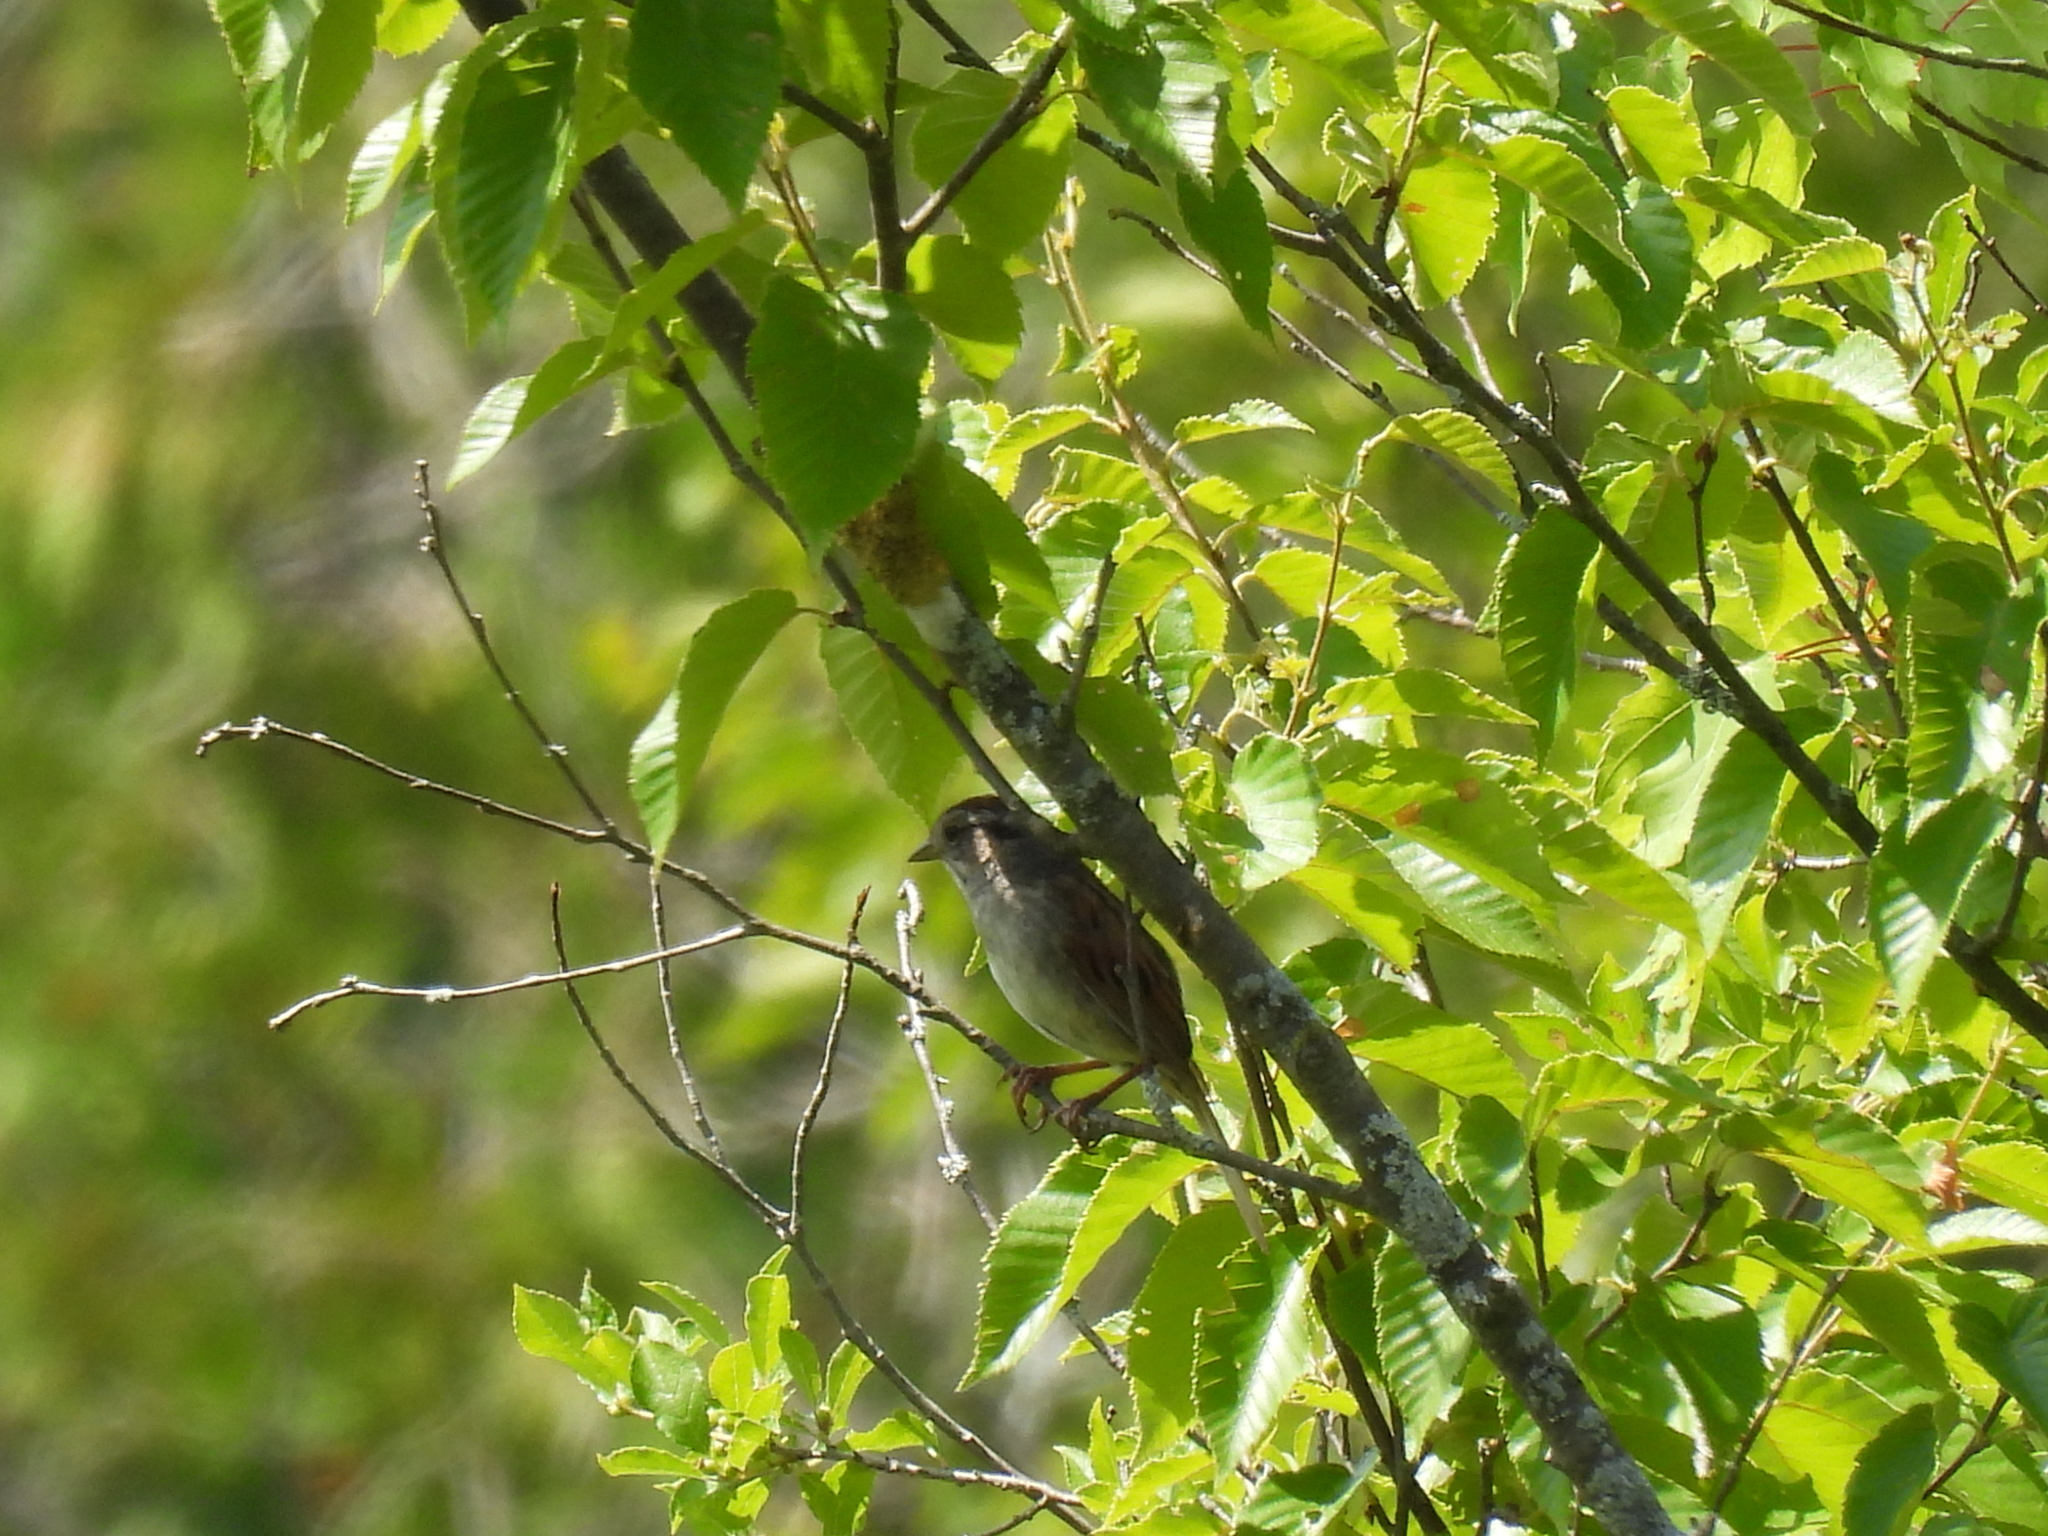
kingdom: Animalia
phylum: Chordata
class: Aves
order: Passeriformes
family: Passerellidae
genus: Melospiza
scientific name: Melospiza georgiana
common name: Swamp sparrow
